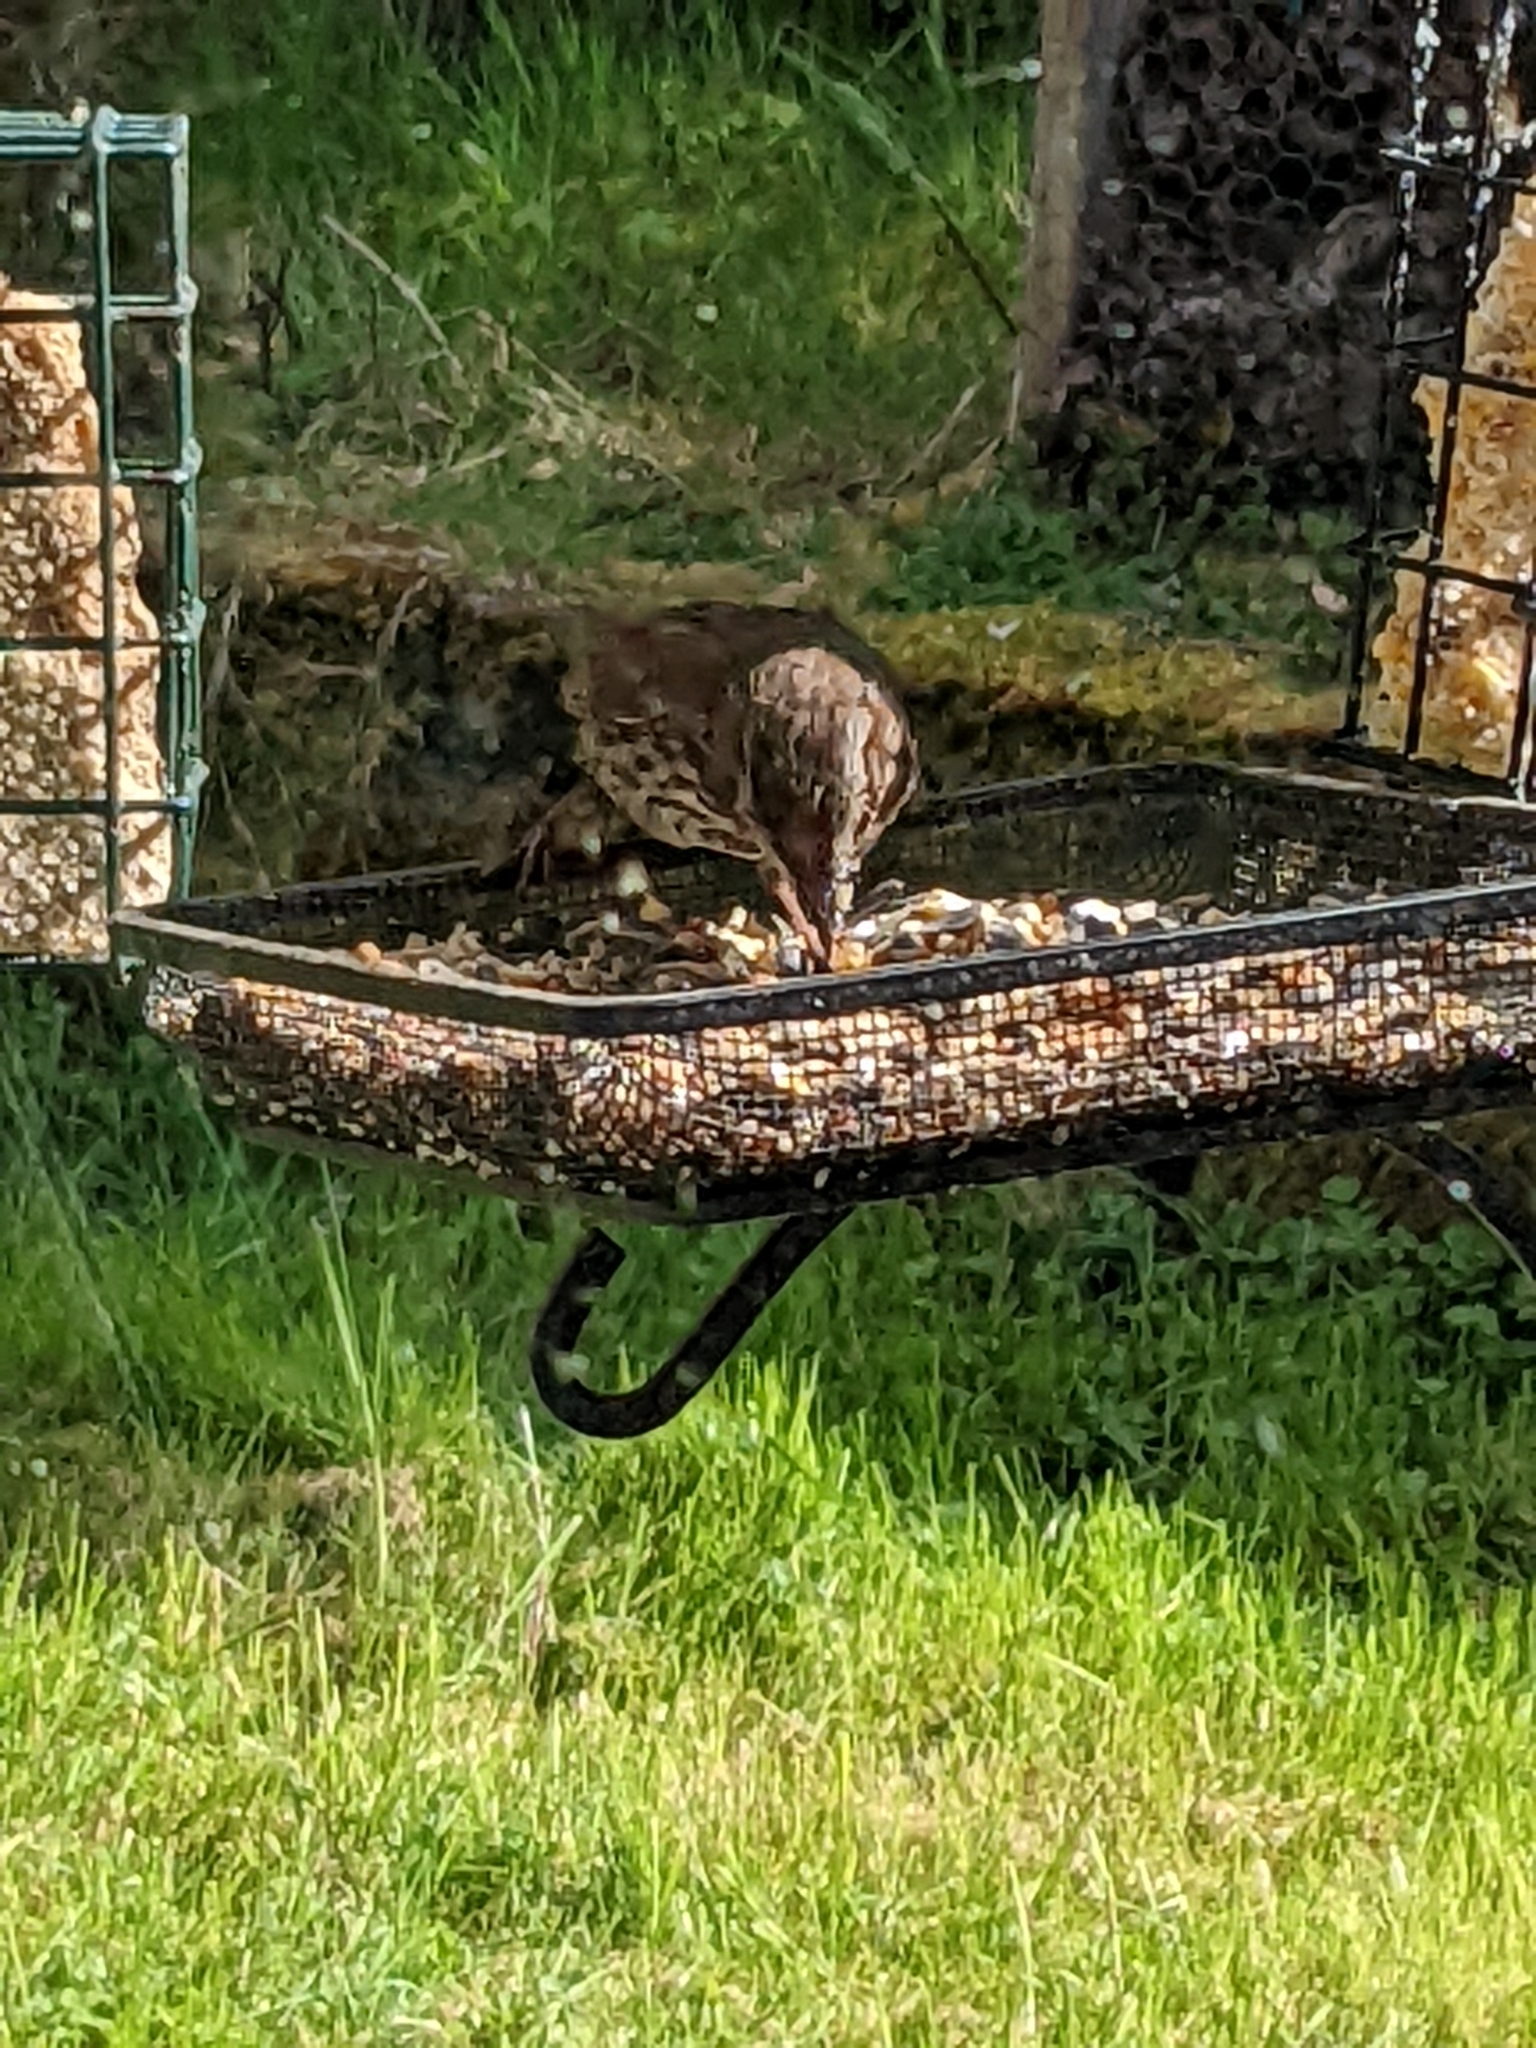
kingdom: Animalia
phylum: Chordata
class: Aves
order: Passeriformes
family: Passerellidae
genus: Melospiza
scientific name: Melospiza melodia
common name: Song sparrow
